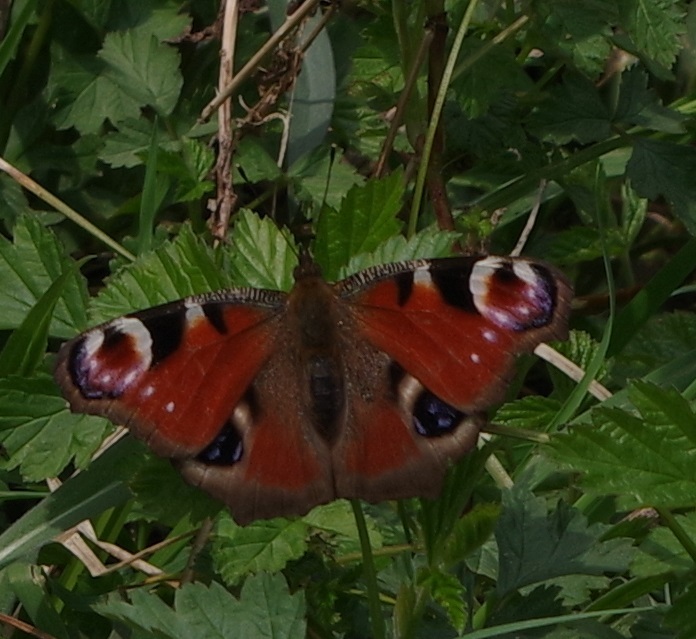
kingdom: Animalia
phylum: Arthropoda
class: Insecta
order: Lepidoptera
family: Nymphalidae
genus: Aglais
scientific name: Aglais io
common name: Peacock
